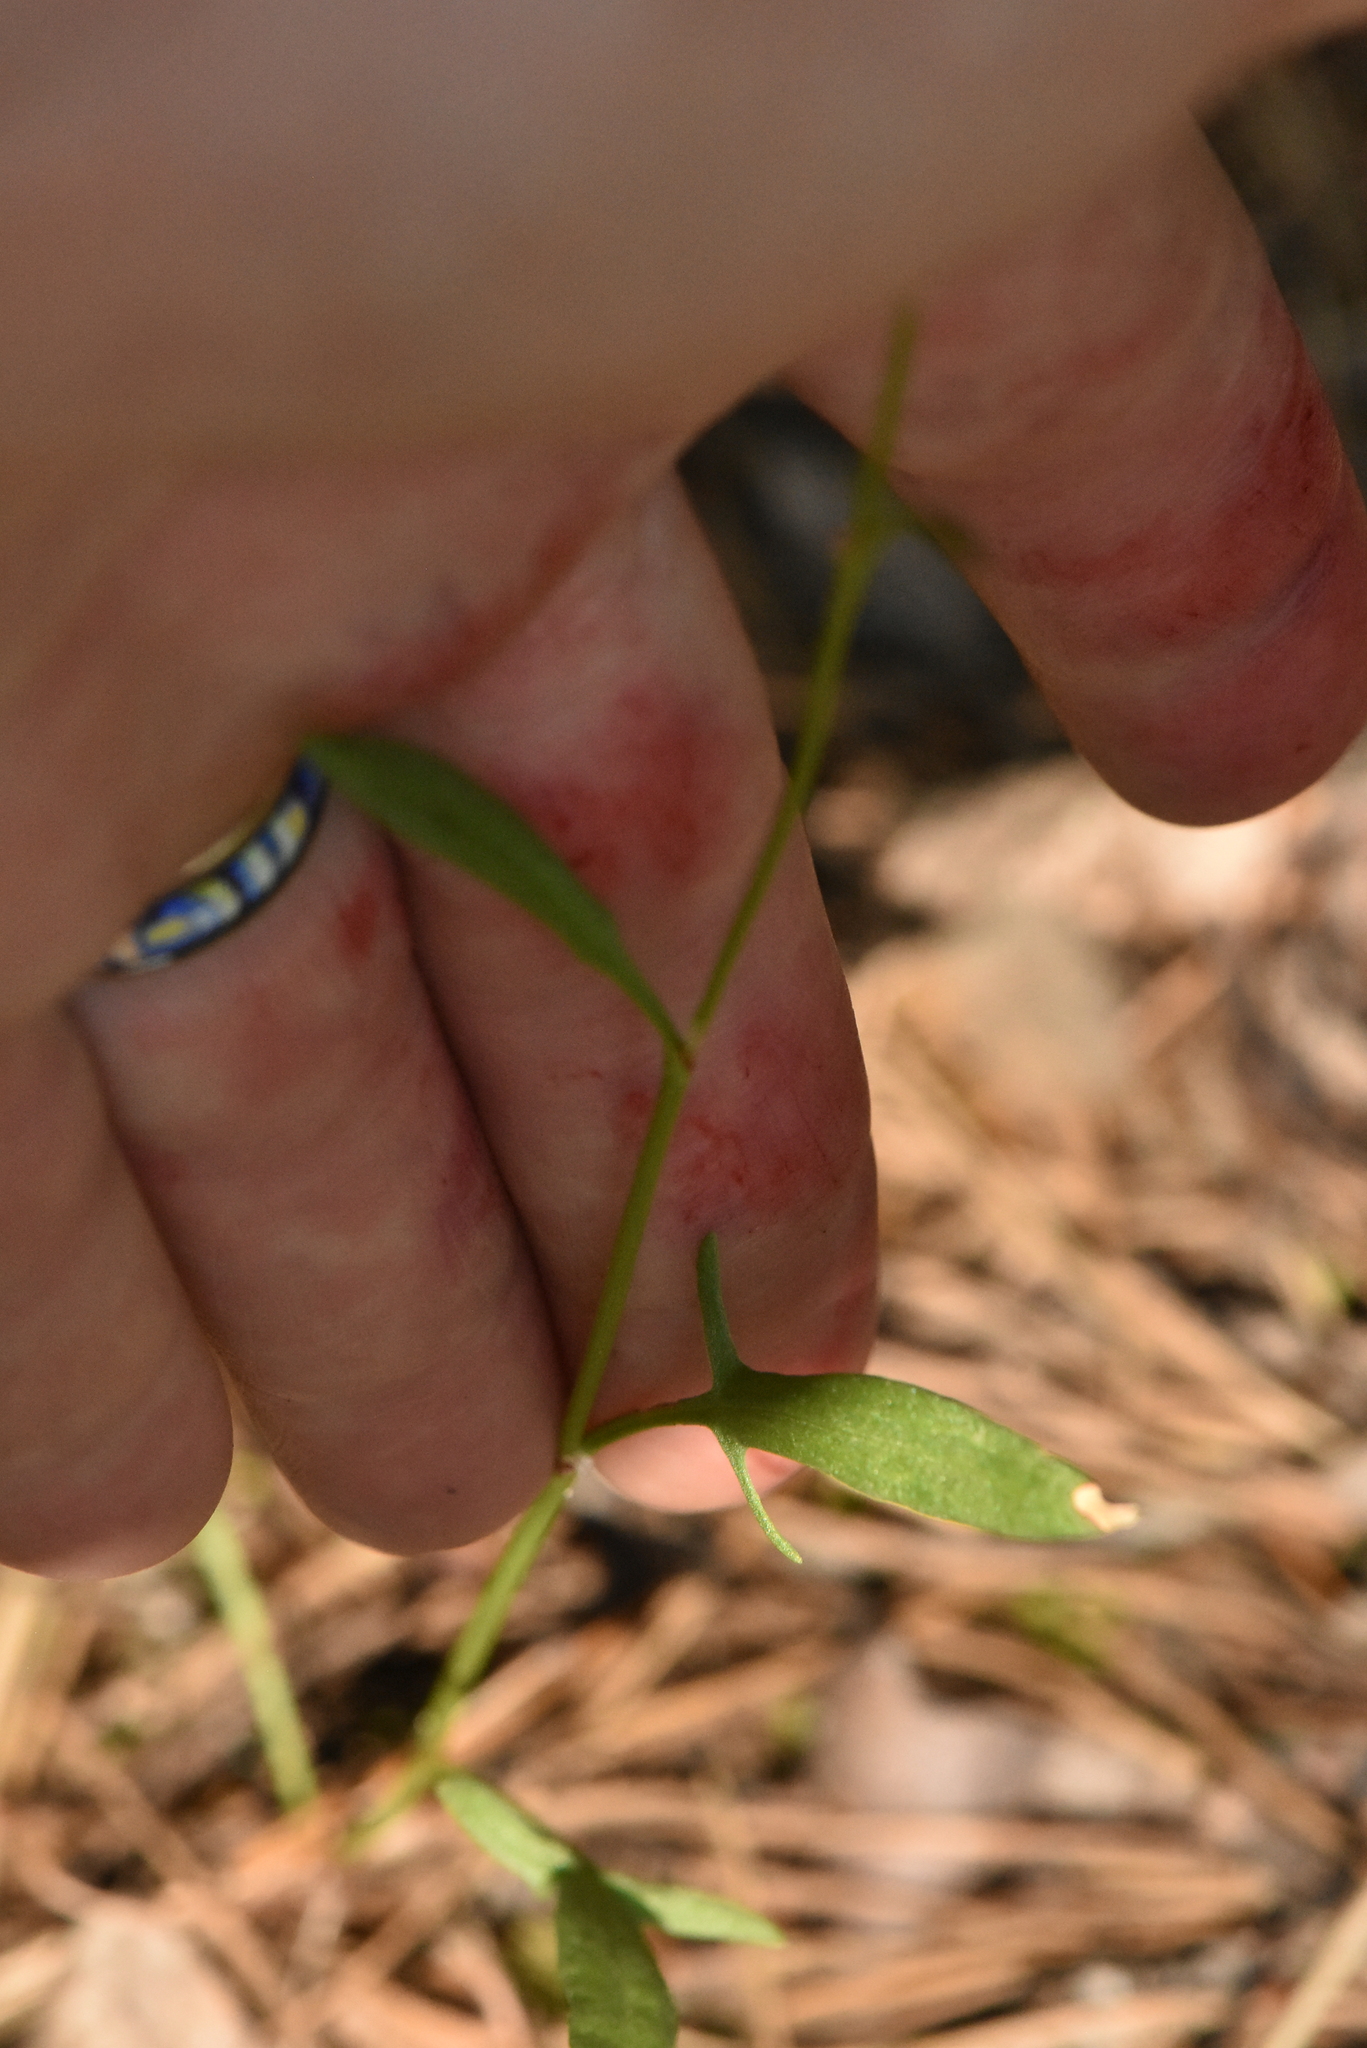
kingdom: Plantae
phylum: Tracheophyta
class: Magnoliopsida
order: Caryophyllales
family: Polygonaceae
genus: Rumex
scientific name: Rumex acetosella
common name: Common sheep sorrel
